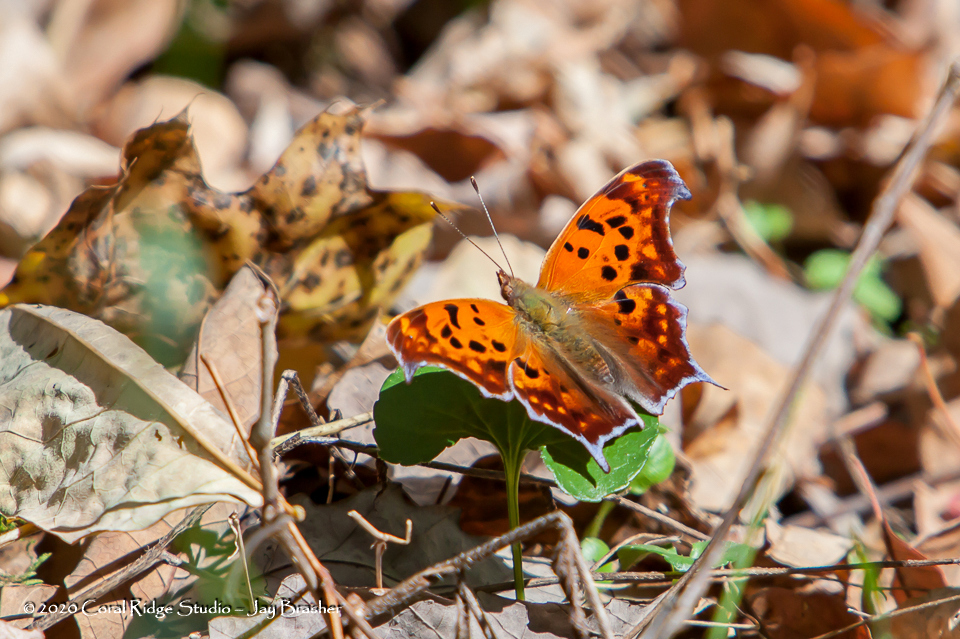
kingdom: Animalia
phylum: Arthropoda
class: Insecta
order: Lepidoptera
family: Nymphalidae
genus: Polygonia
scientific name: Polygonia interrogationis
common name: Question mark
